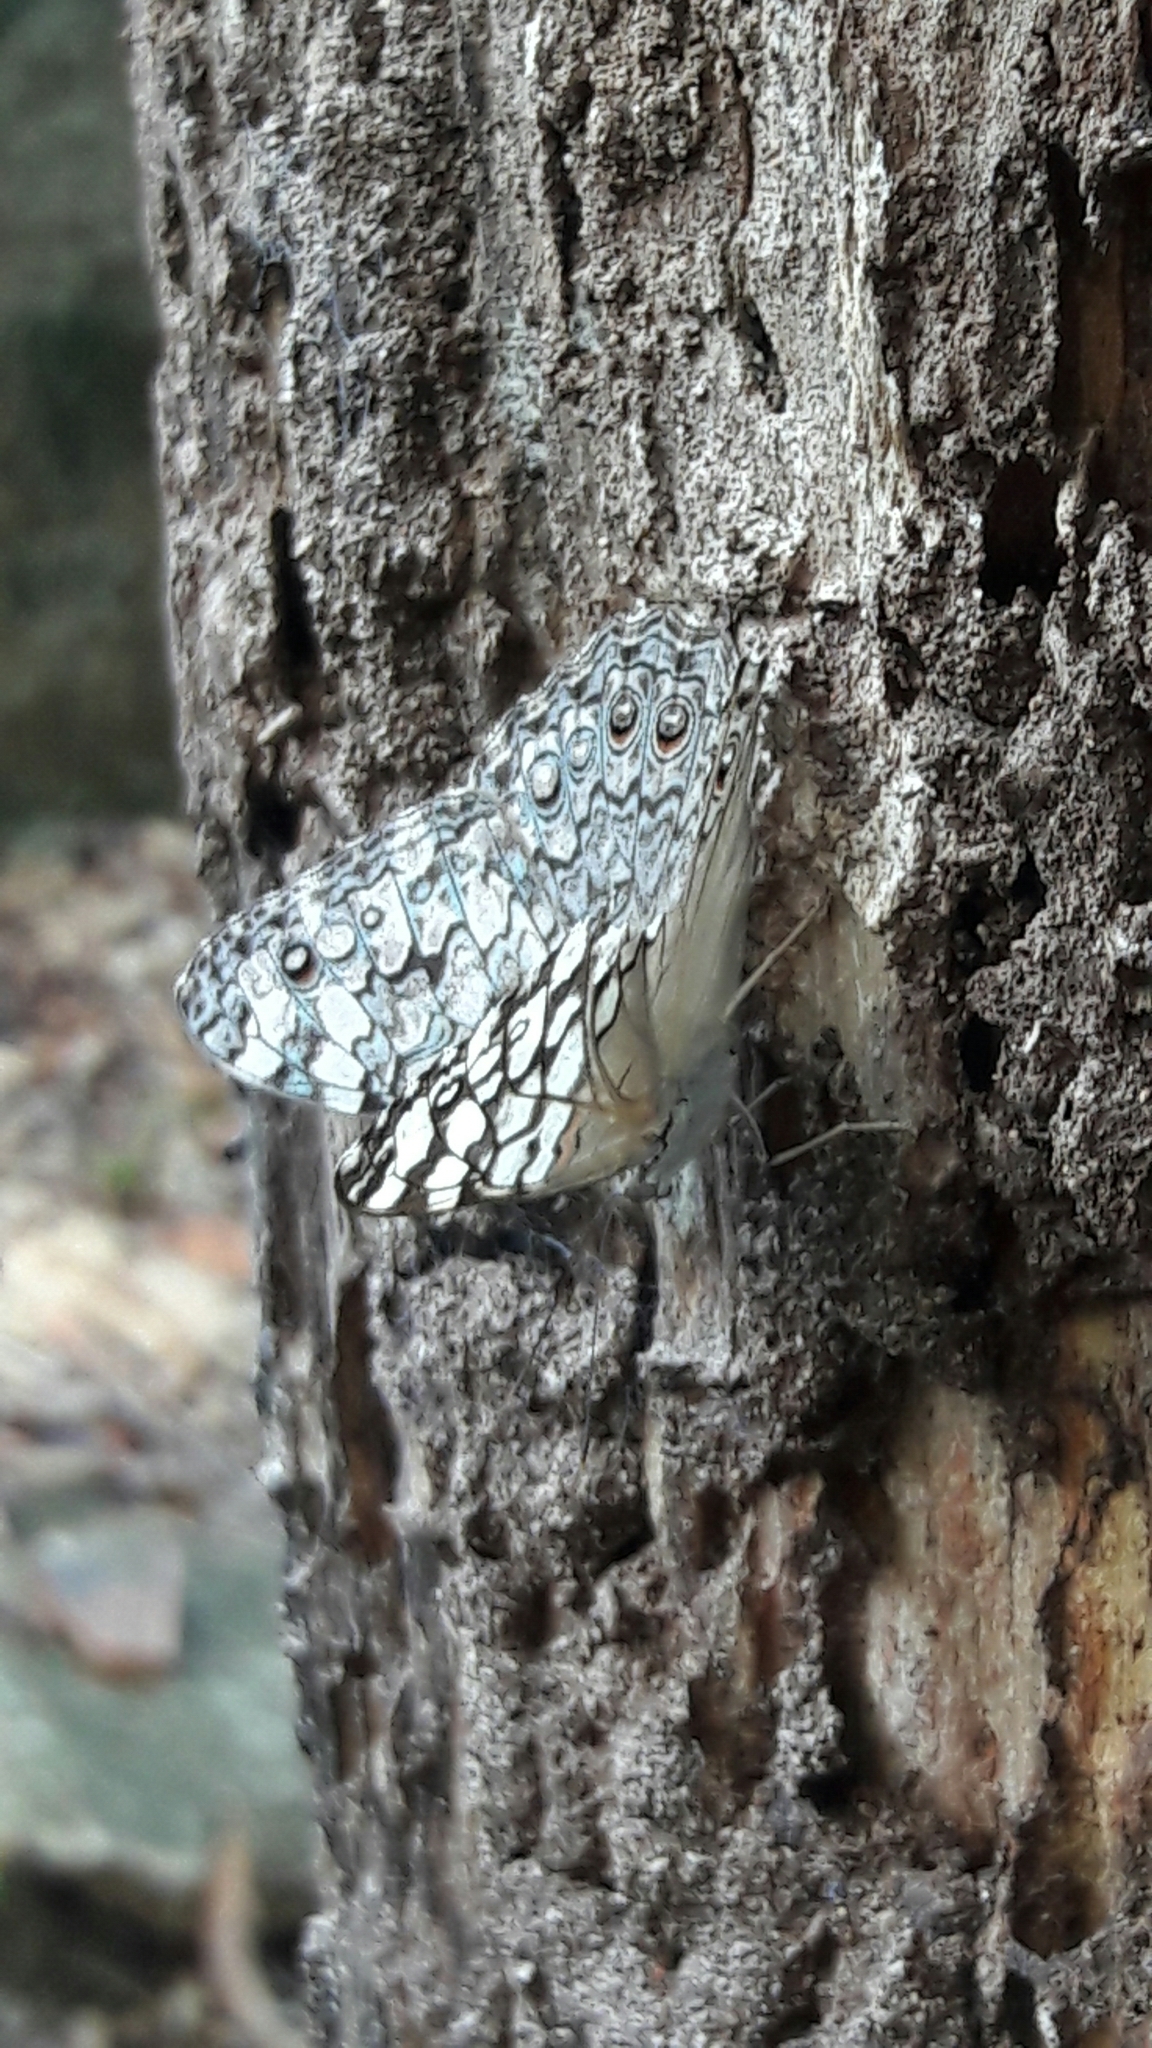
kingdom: Animalia
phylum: Arthropoda
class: Insecta
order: Lepidoptera
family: Nymphalidae
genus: Hamadryas
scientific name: Hamadryas februa
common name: Gray cracker
